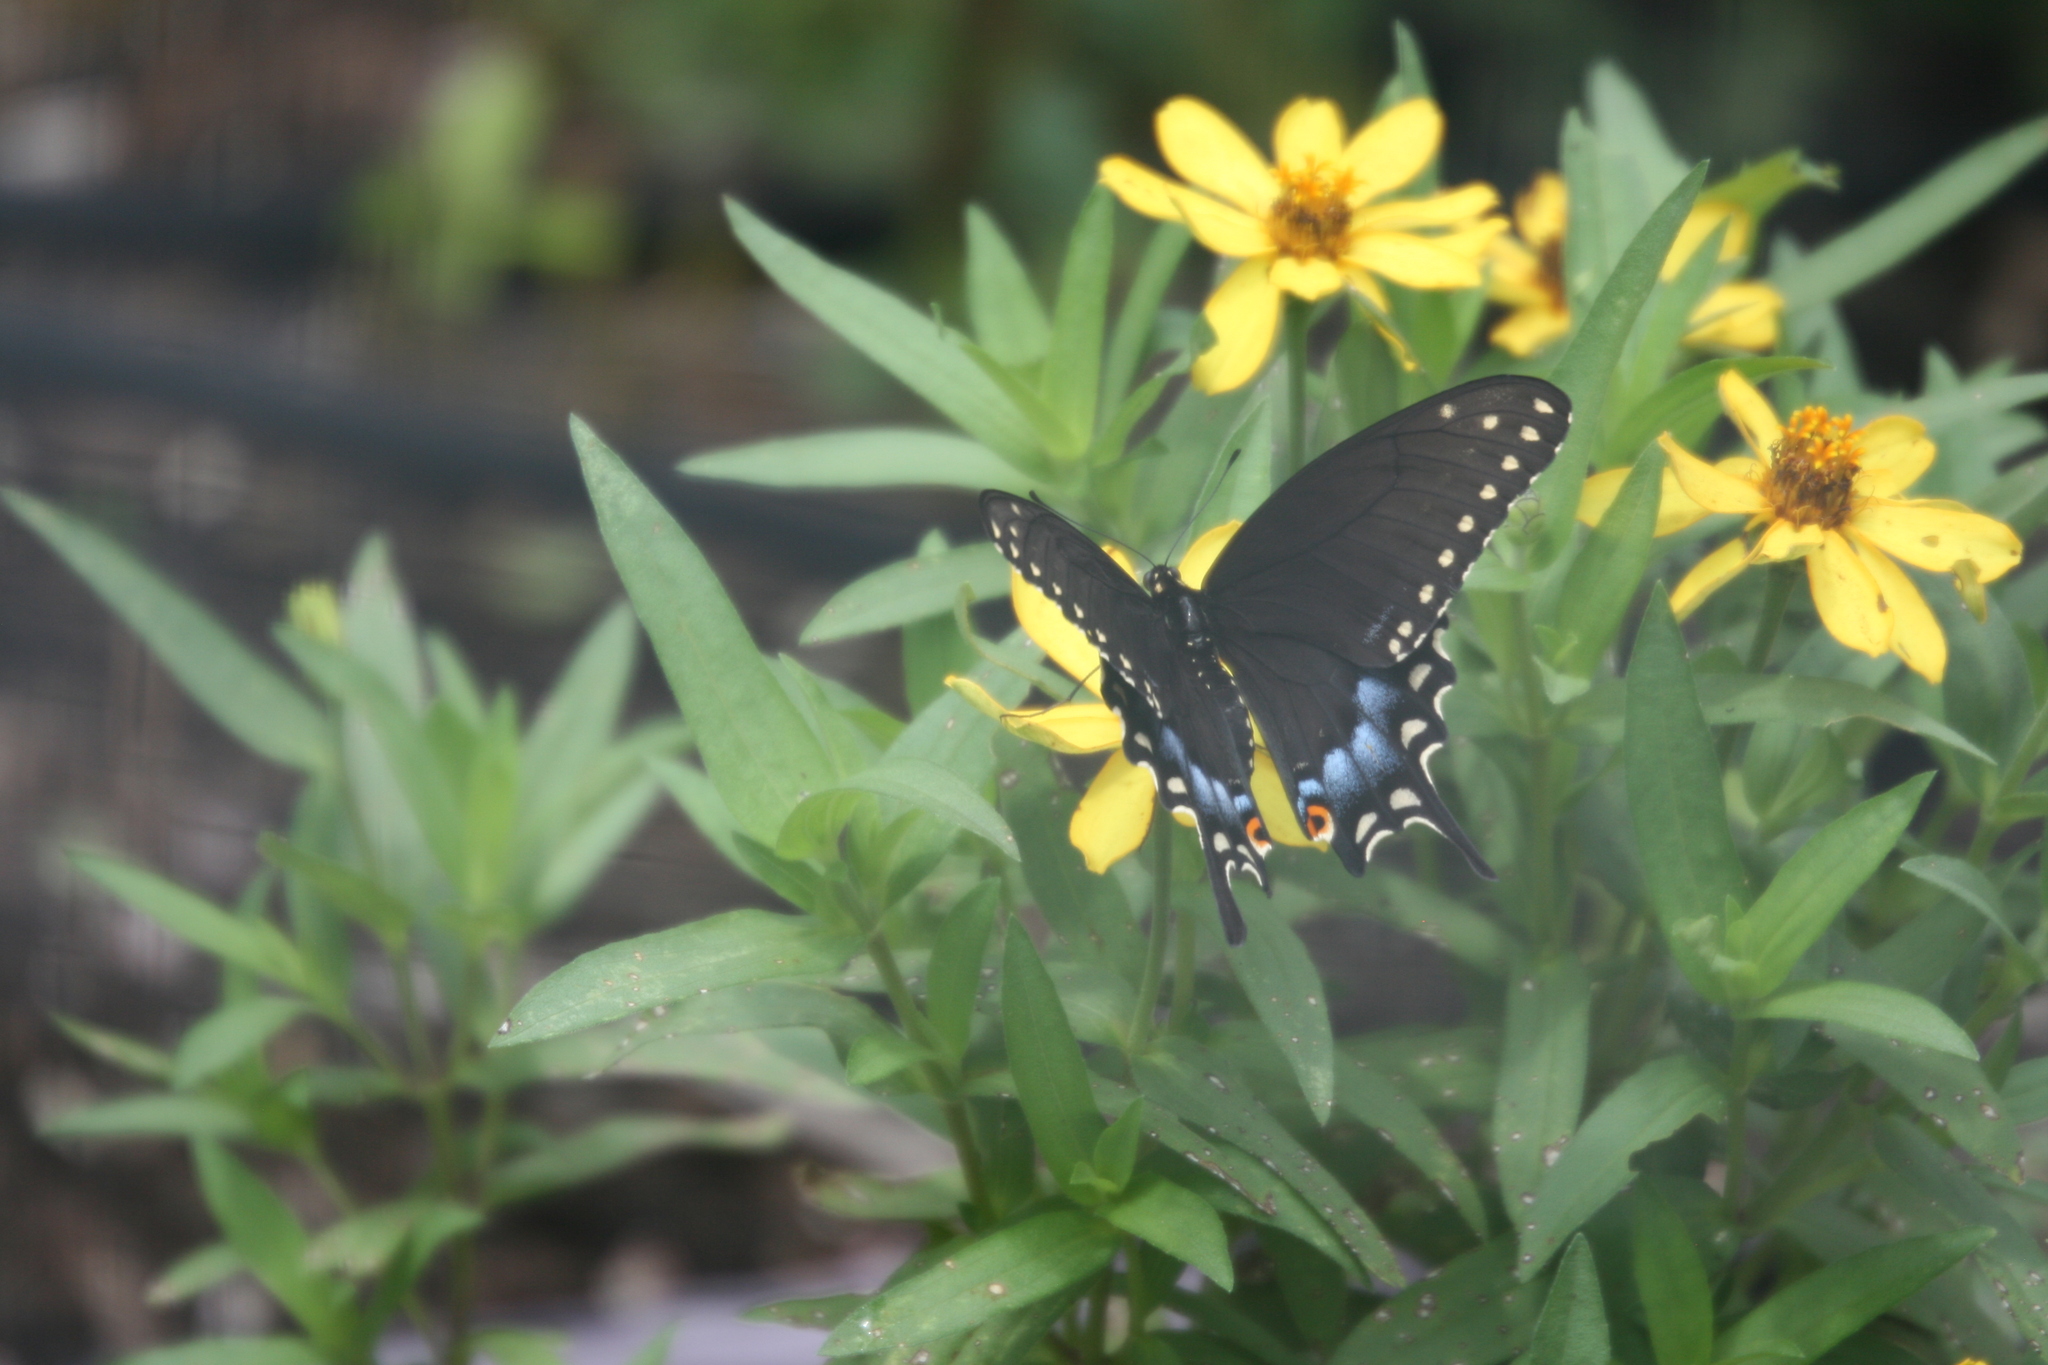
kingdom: Animalia
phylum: Arthropoda
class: Insecta
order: Lepidoptera
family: Papilionidae
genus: Papilio
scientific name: Papilio polyxenes
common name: Black swallowtail
